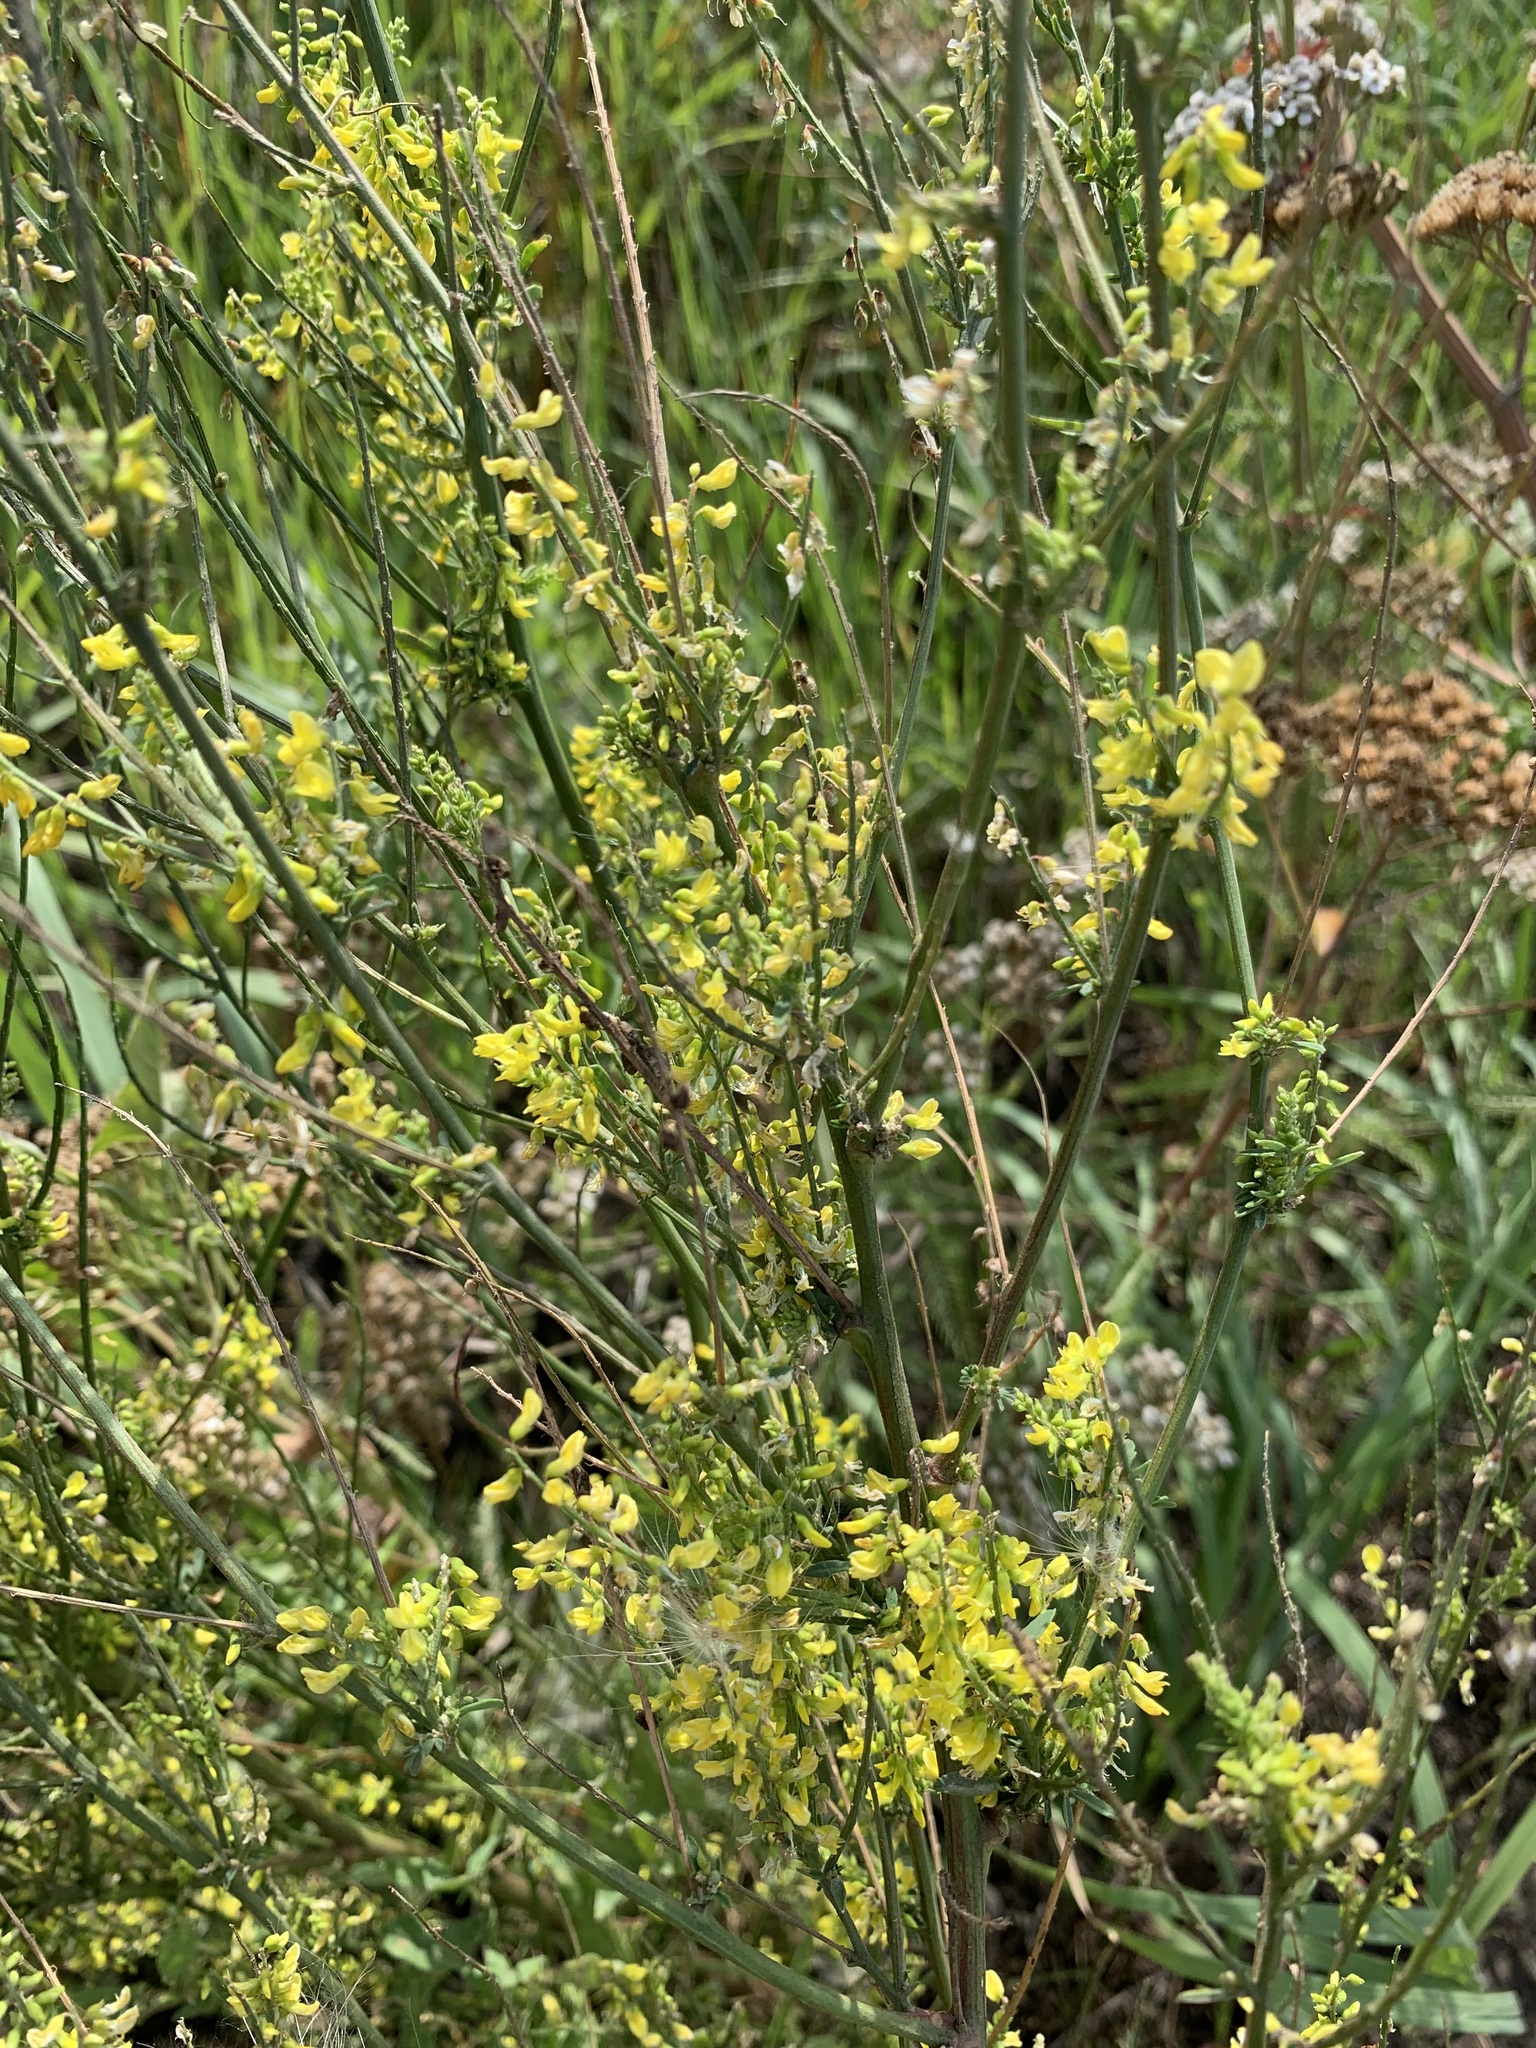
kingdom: Plantae
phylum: Tracheophyta
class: Magnoliopsida
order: Fabales
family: Fabaceae
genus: Melilotus
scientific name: Melilotus officinalis
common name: Sweetclover
